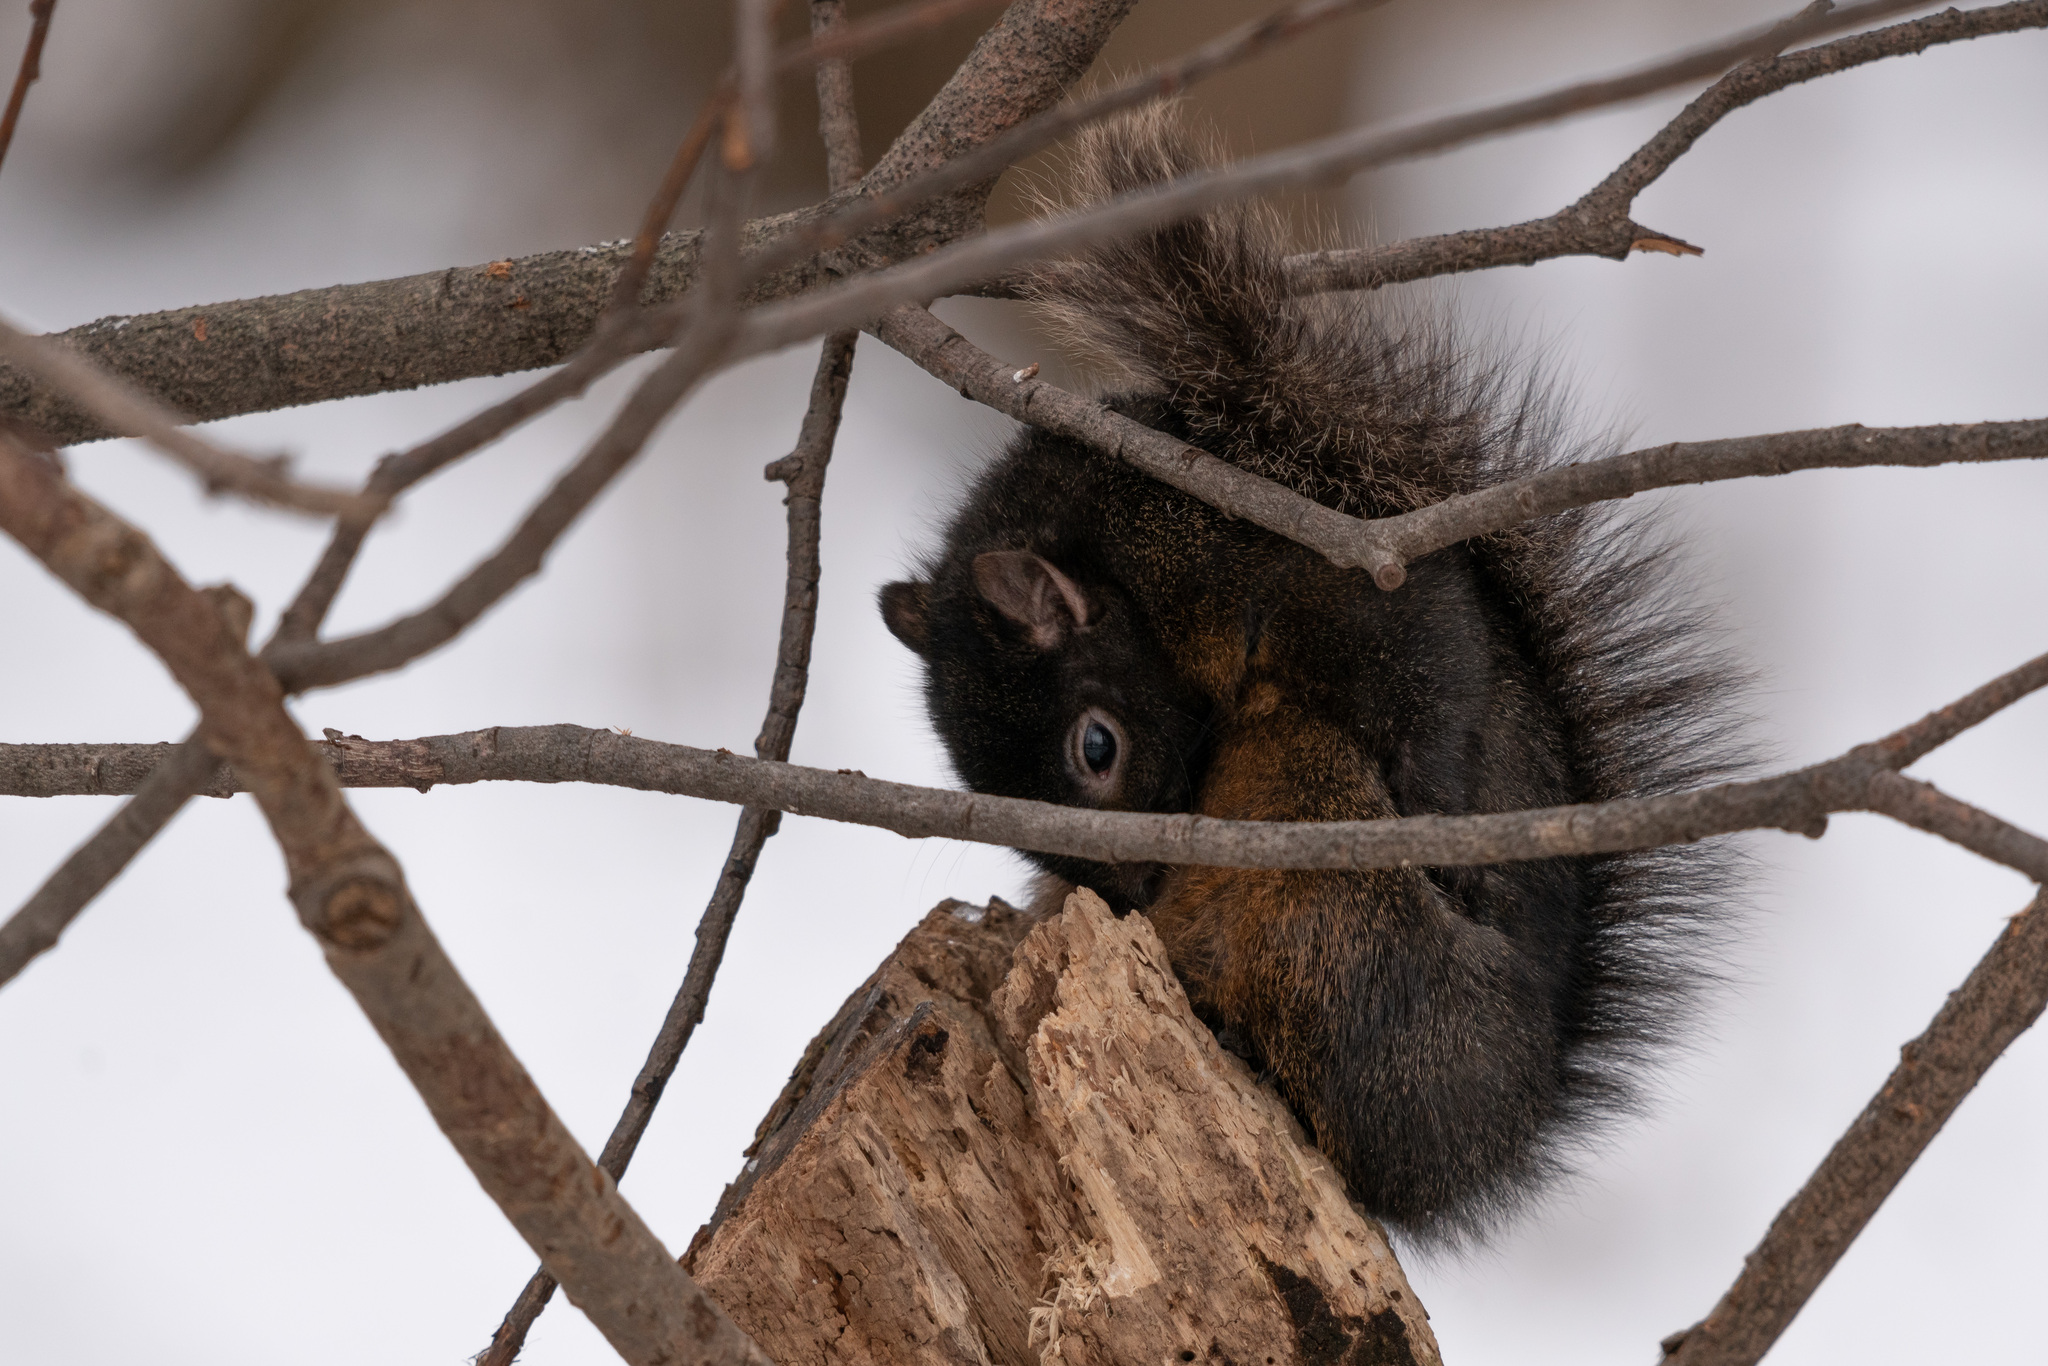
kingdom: Animalia
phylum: Chordata
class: Mammalia
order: Rodentia
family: Sciuridae
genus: Sciurus
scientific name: Sciurus carolinensis
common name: Eastern gray squirrel
